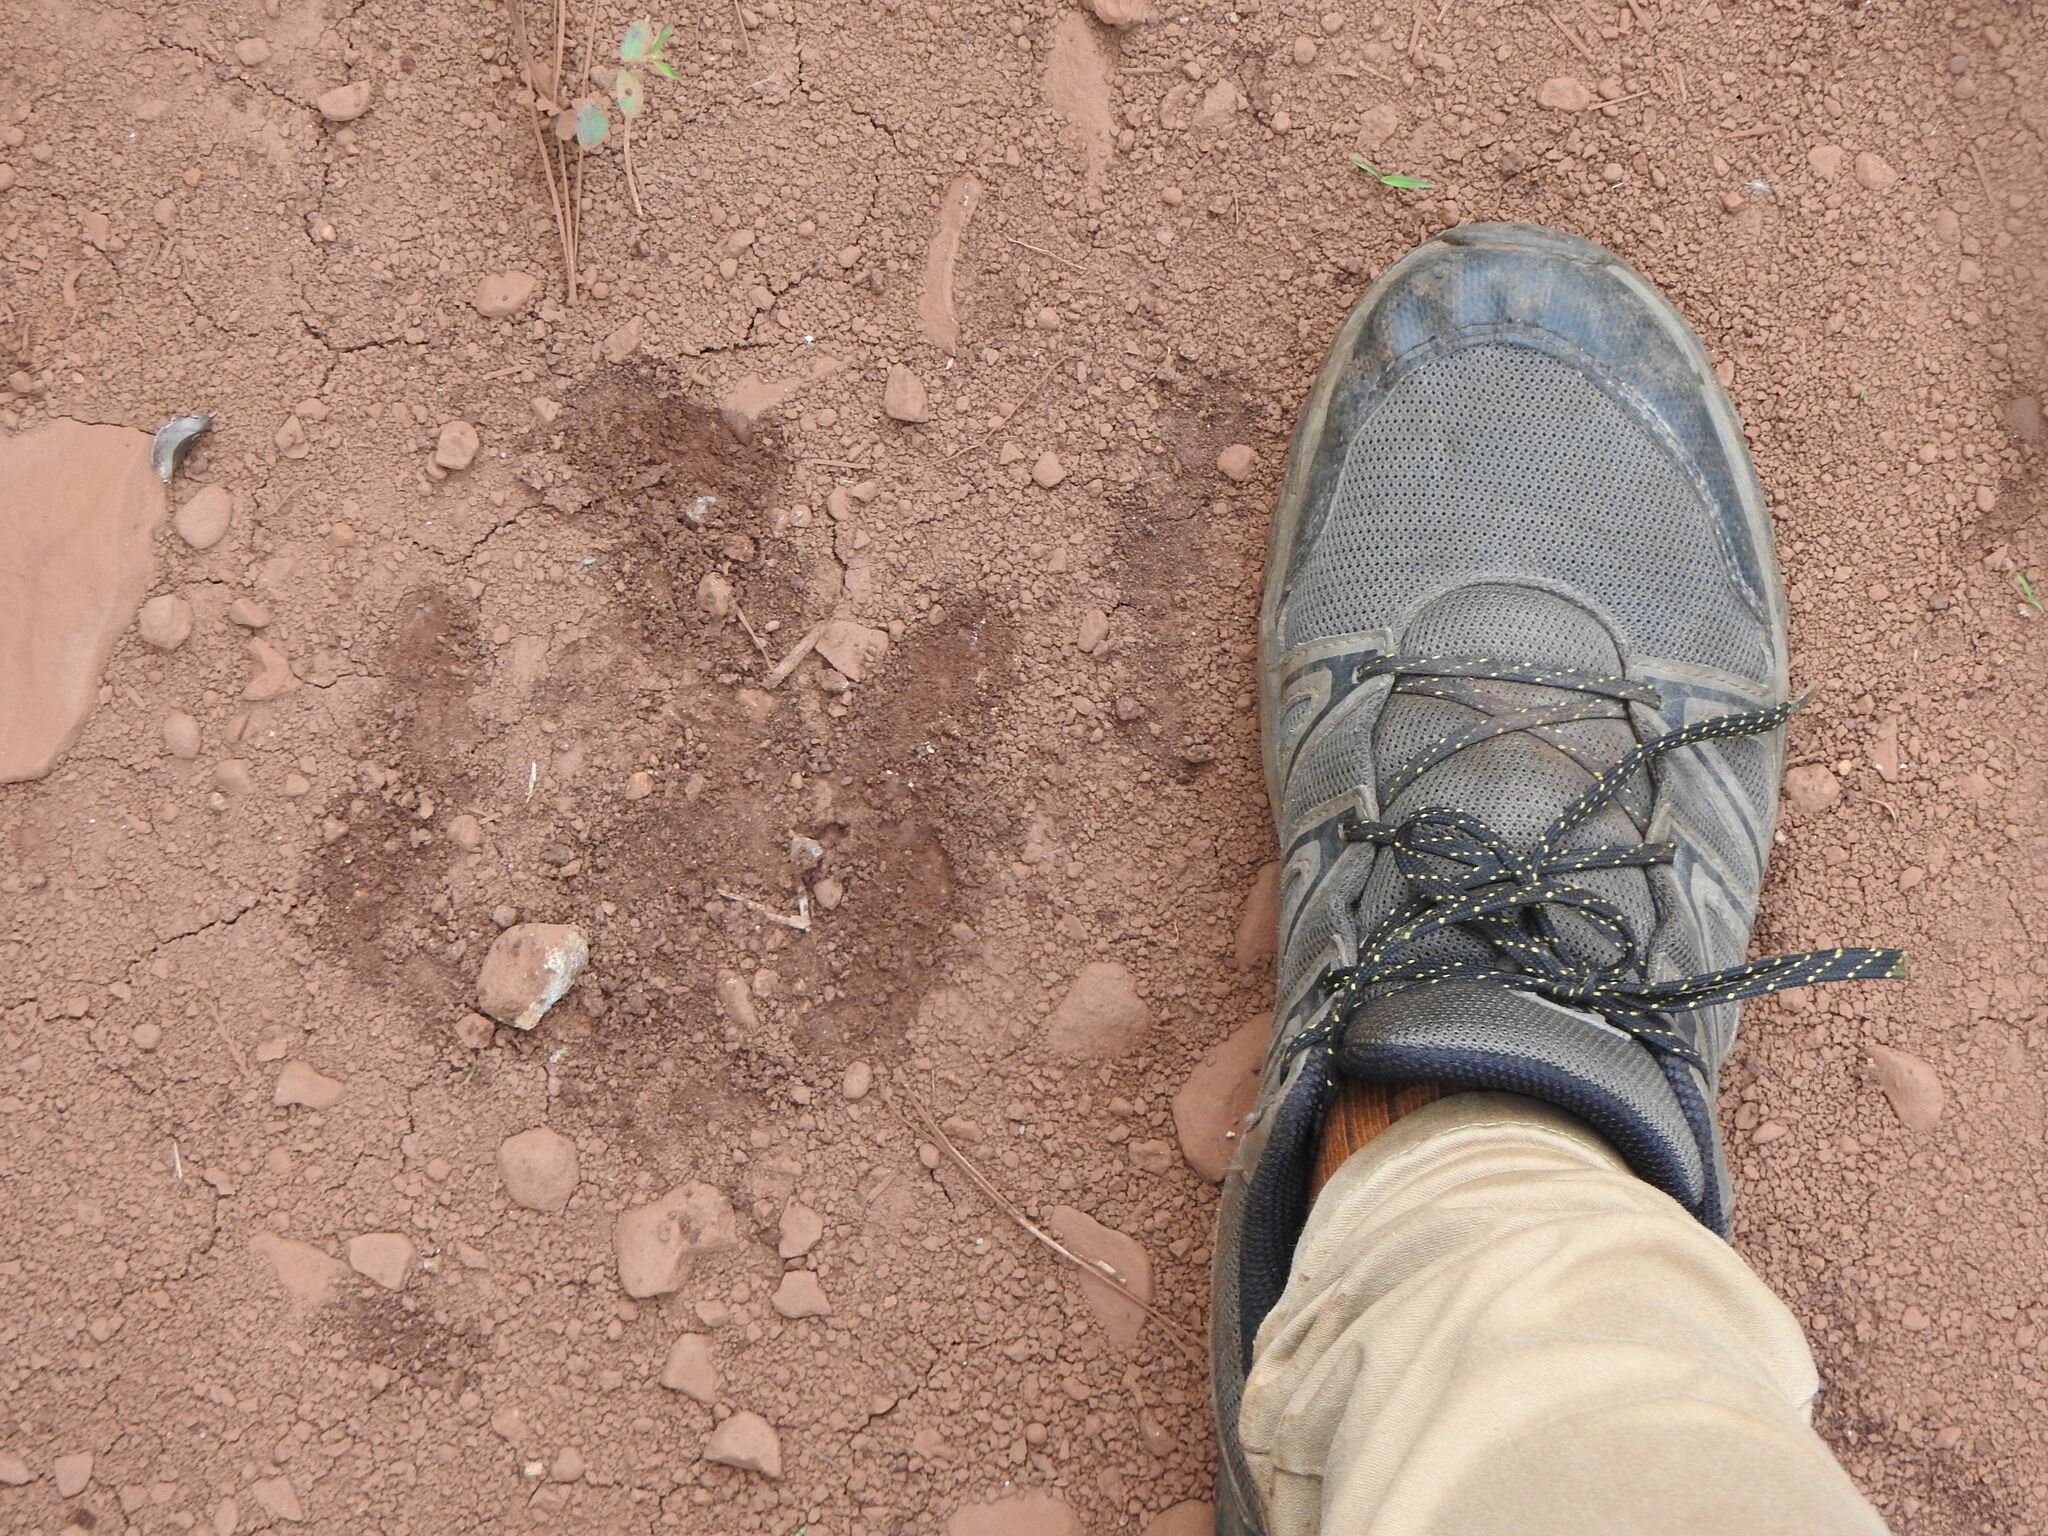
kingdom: Animalia
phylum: Chordata
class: Mammalia
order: Perissodactyla
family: Tapiridae
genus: Tapirus
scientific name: Tapirus terrestris
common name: Brazilian tapir
